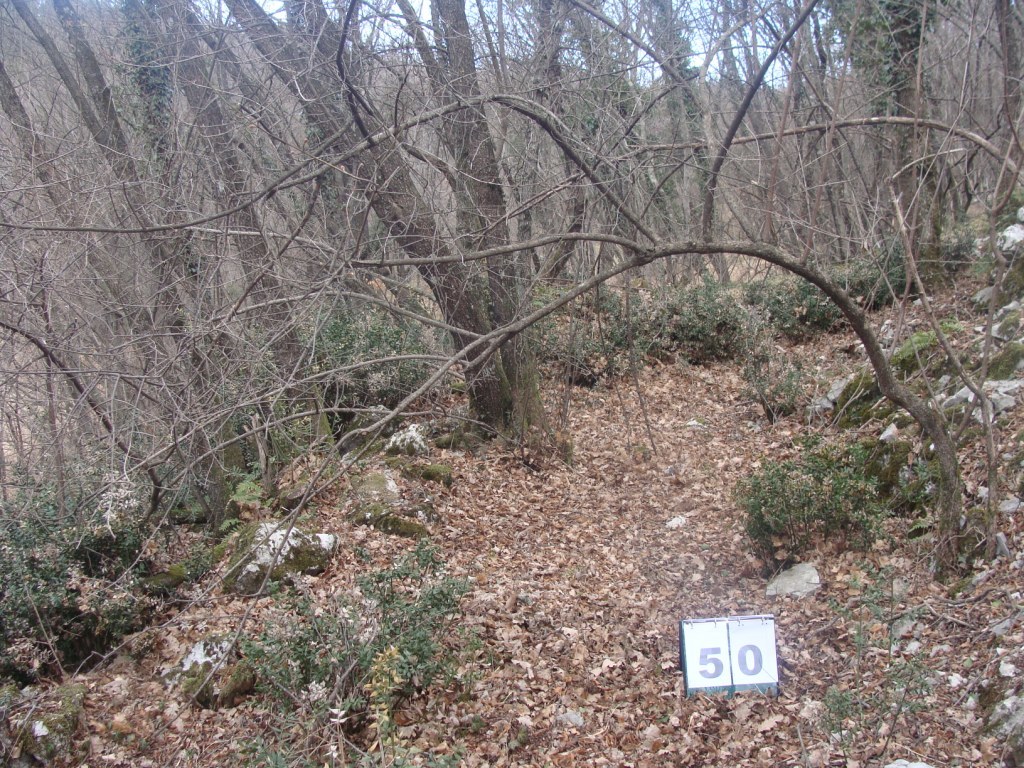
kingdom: Plantae
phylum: Tracheophyta
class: Magnoliopsida
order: Cornales
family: Cornaceae
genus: Cornus
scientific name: Cornus mas
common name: Cornelian-cherry
